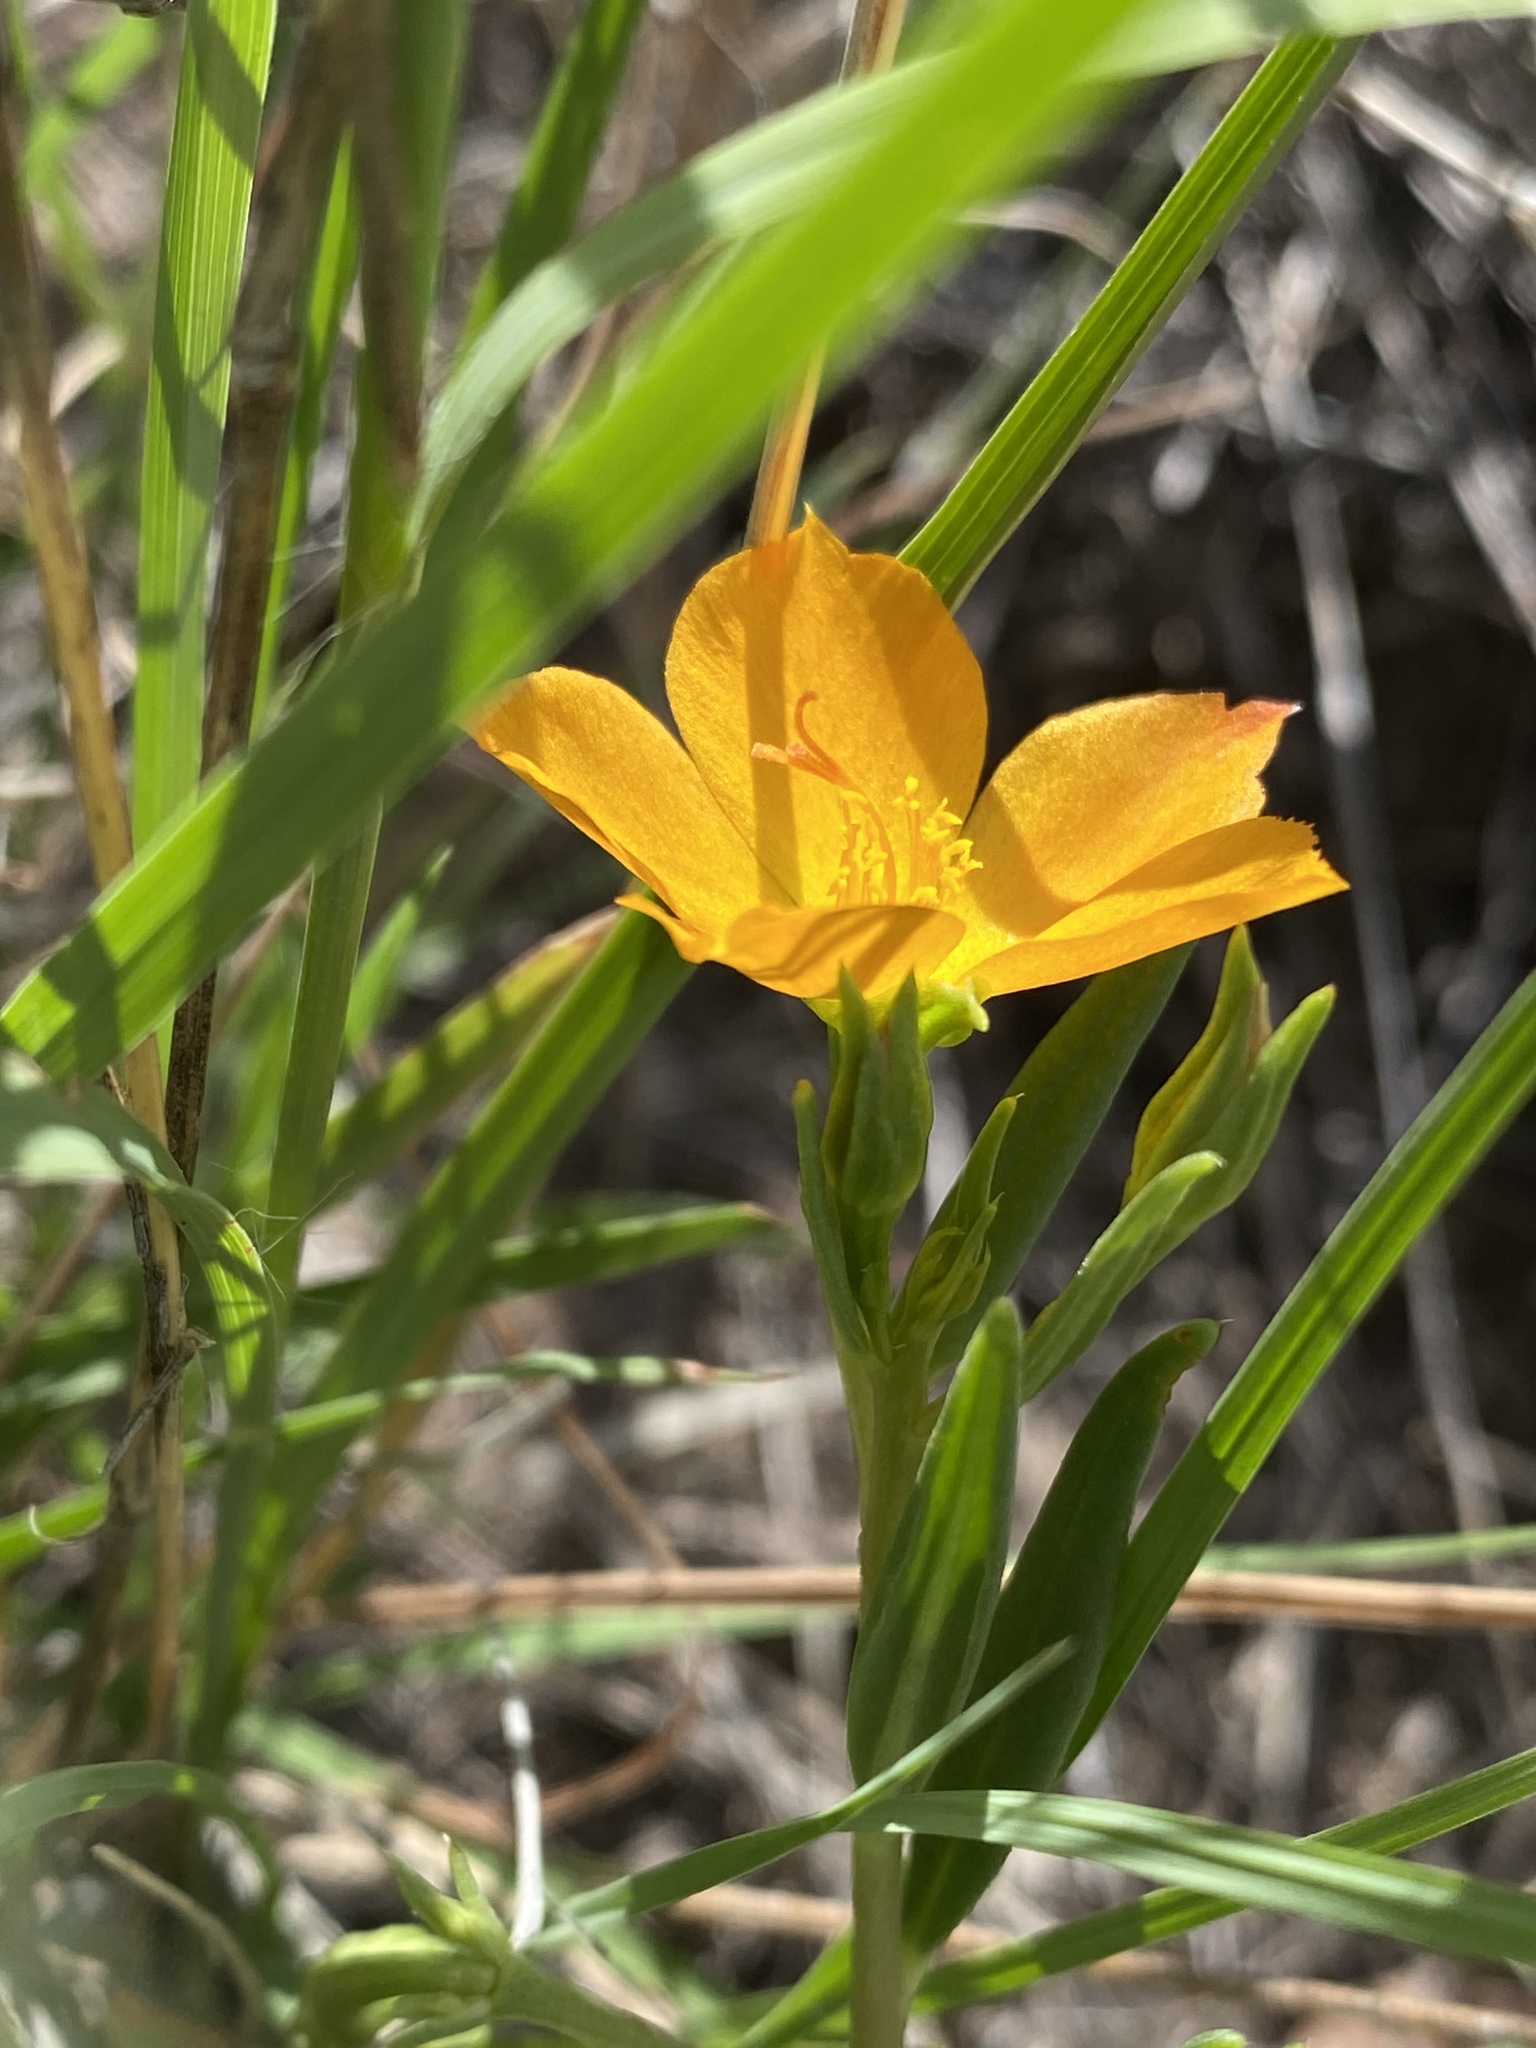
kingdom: Plantae
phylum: Tracheophyta
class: Magnoliopsida
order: Caryophyllales
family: Montiaceae
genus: Phemeranthus
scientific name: Phemeranthus aurantiacus
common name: Orange fameflower
